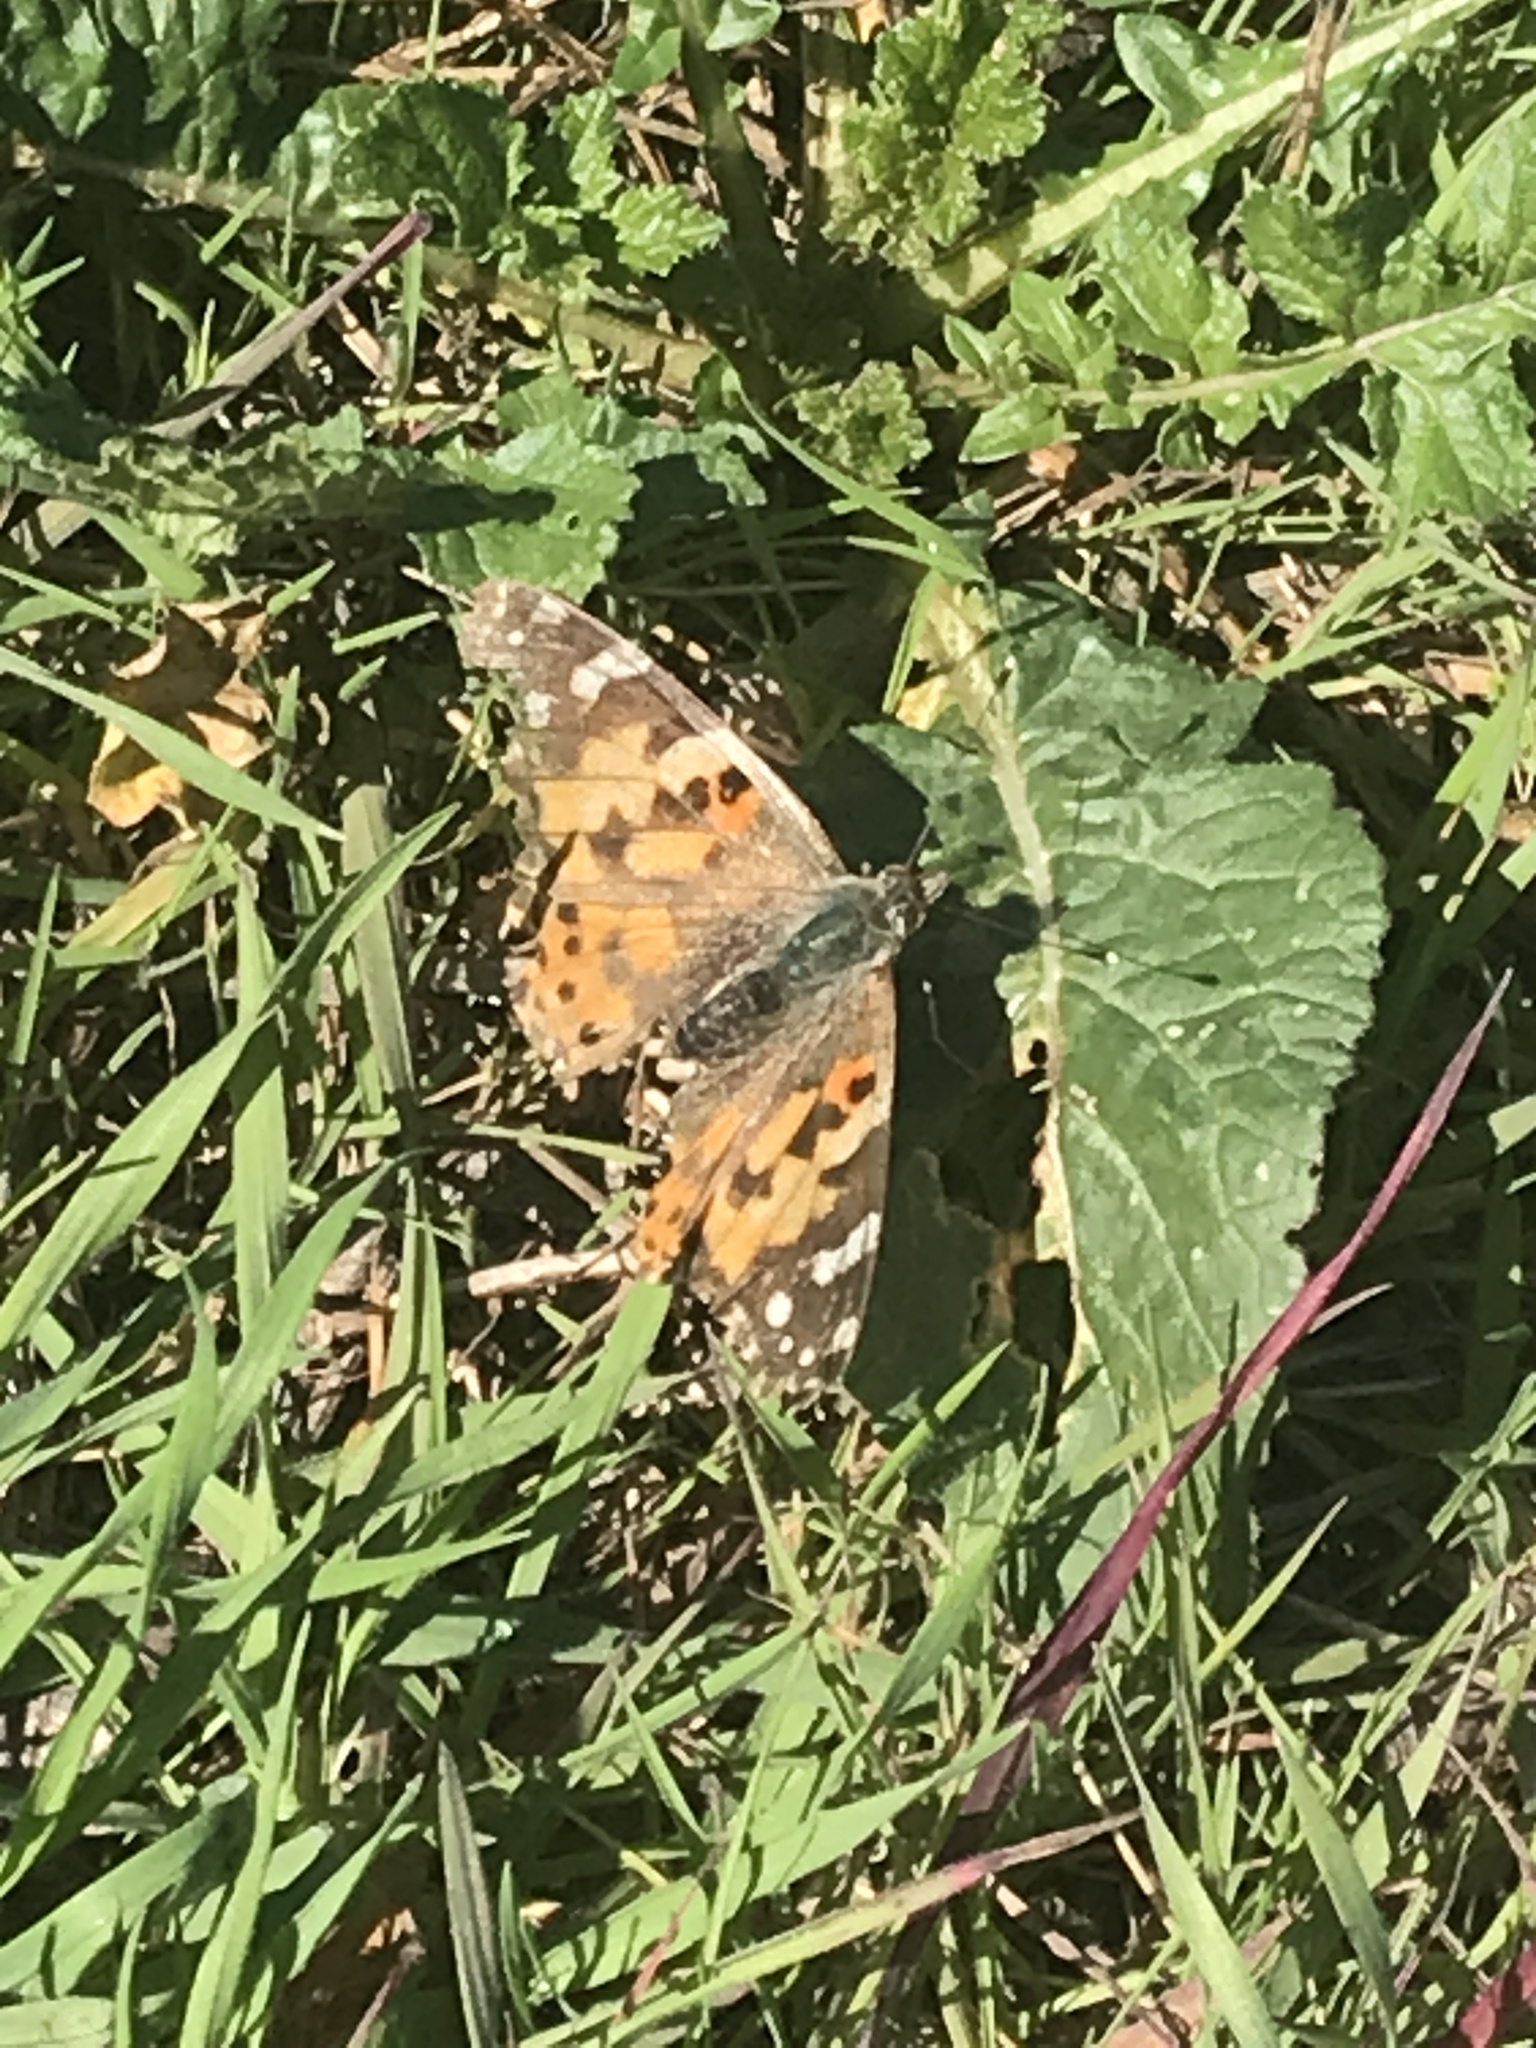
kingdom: Animalia
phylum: Arthropoda
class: Insecta
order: Lepidoptera
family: Nymphalidae
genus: Vanessa
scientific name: Vanessa cardui
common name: Painted lady
